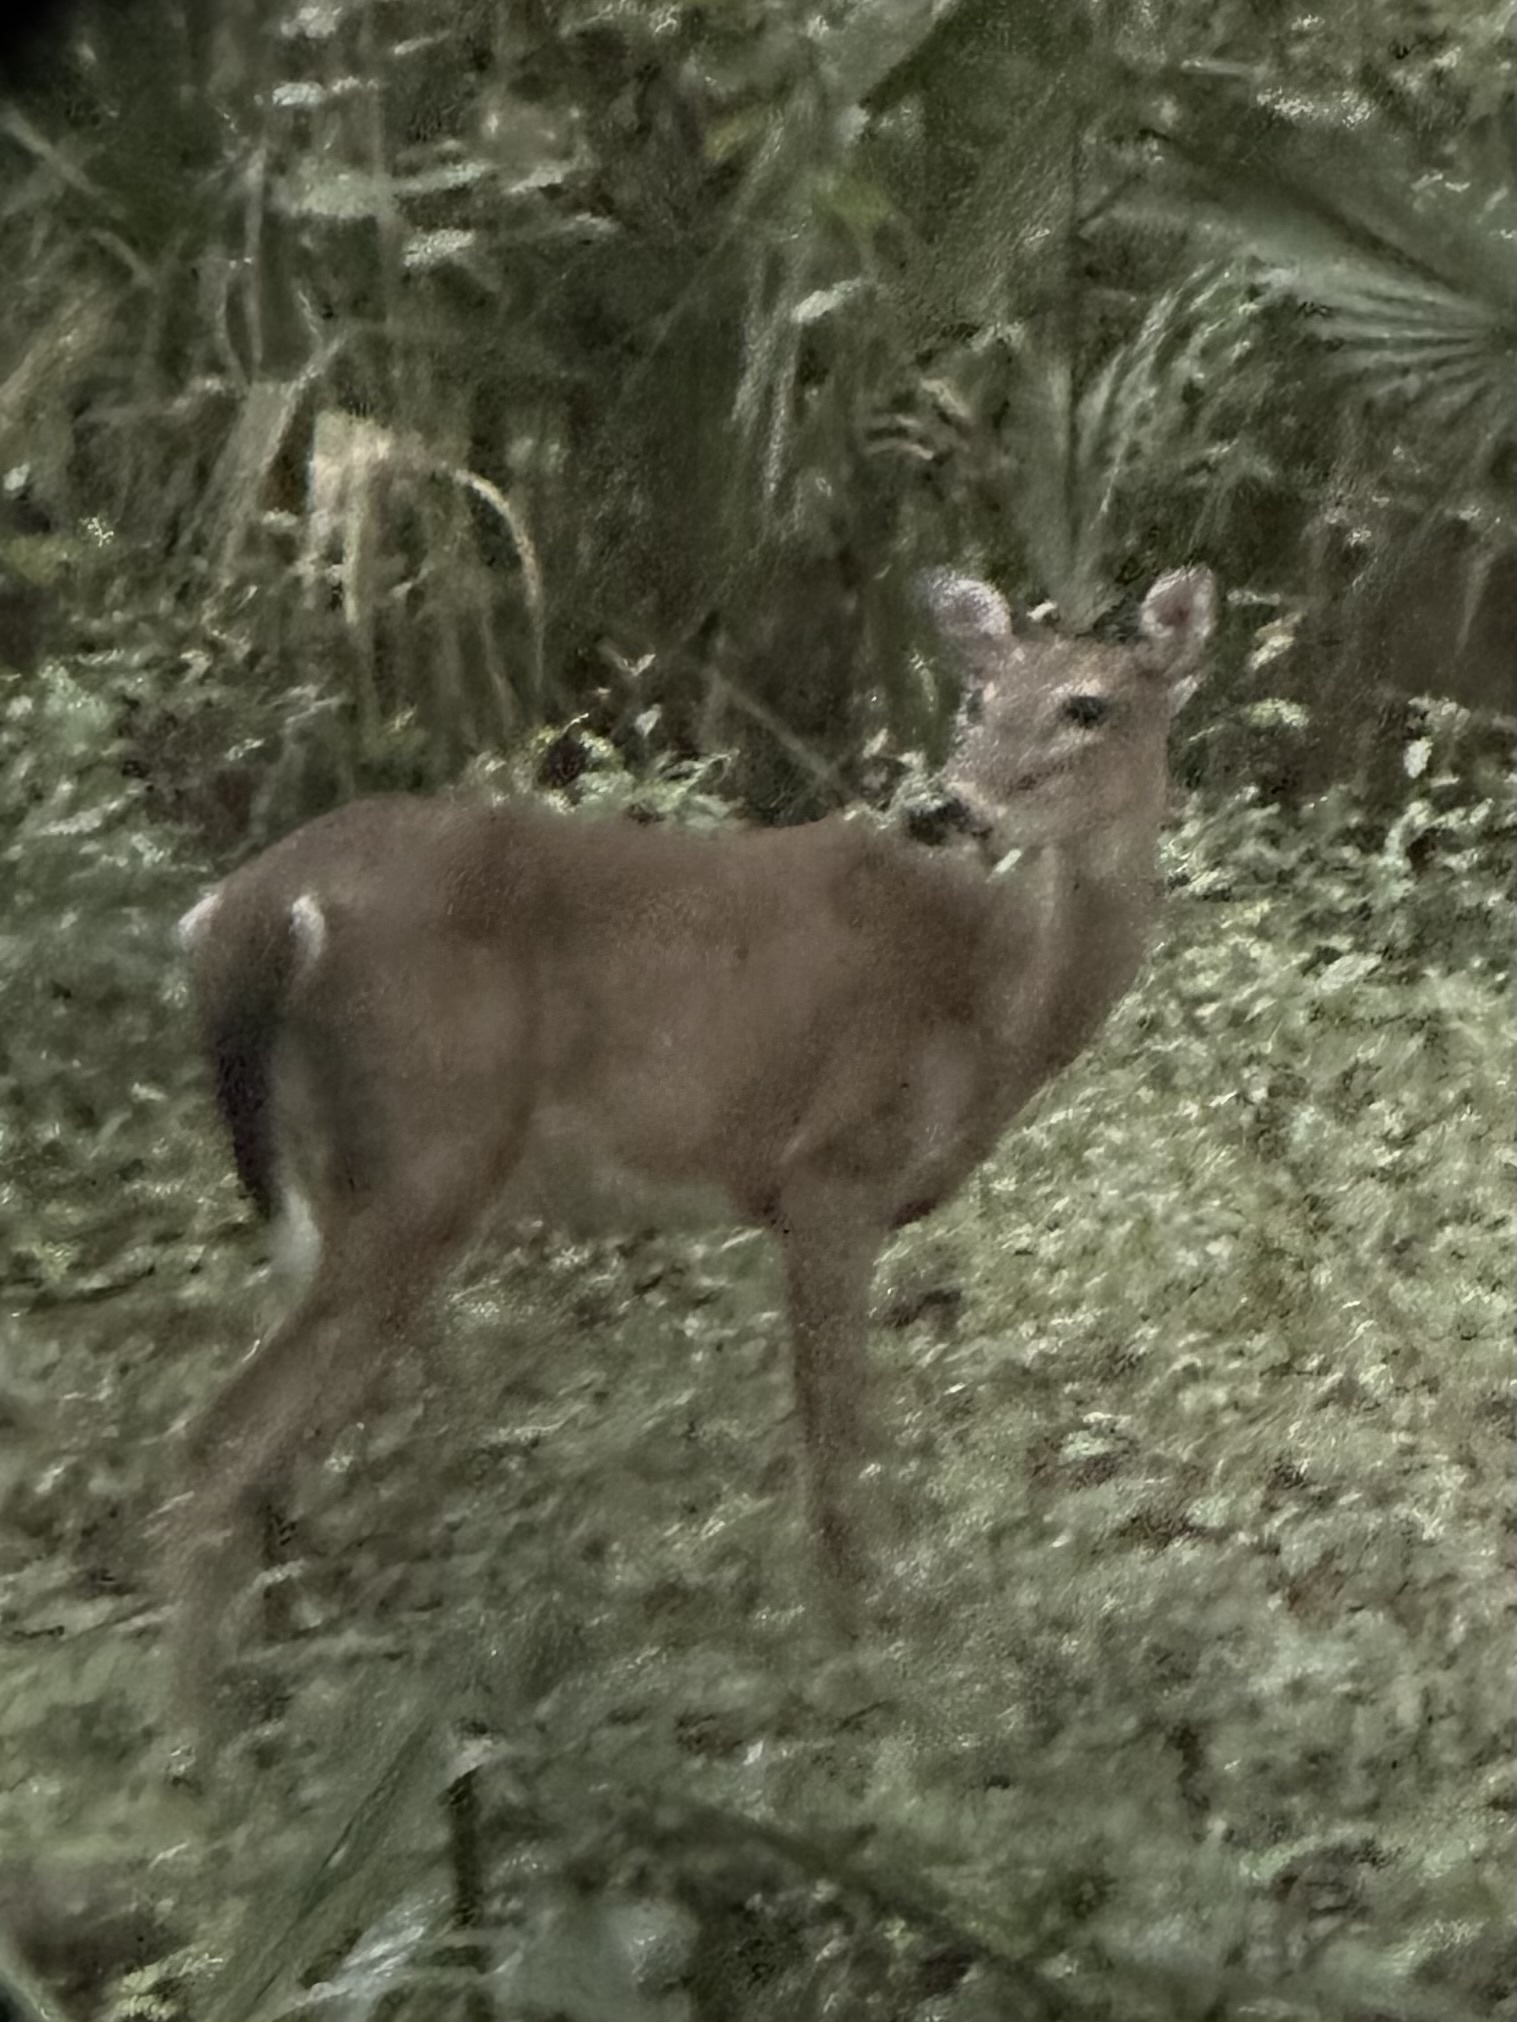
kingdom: Animalia
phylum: Chordata
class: Mammalia
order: Artiodactyla
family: Cervidae
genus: Odocoileus
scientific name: Odocoileus virginianus
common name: White-tailed deer
